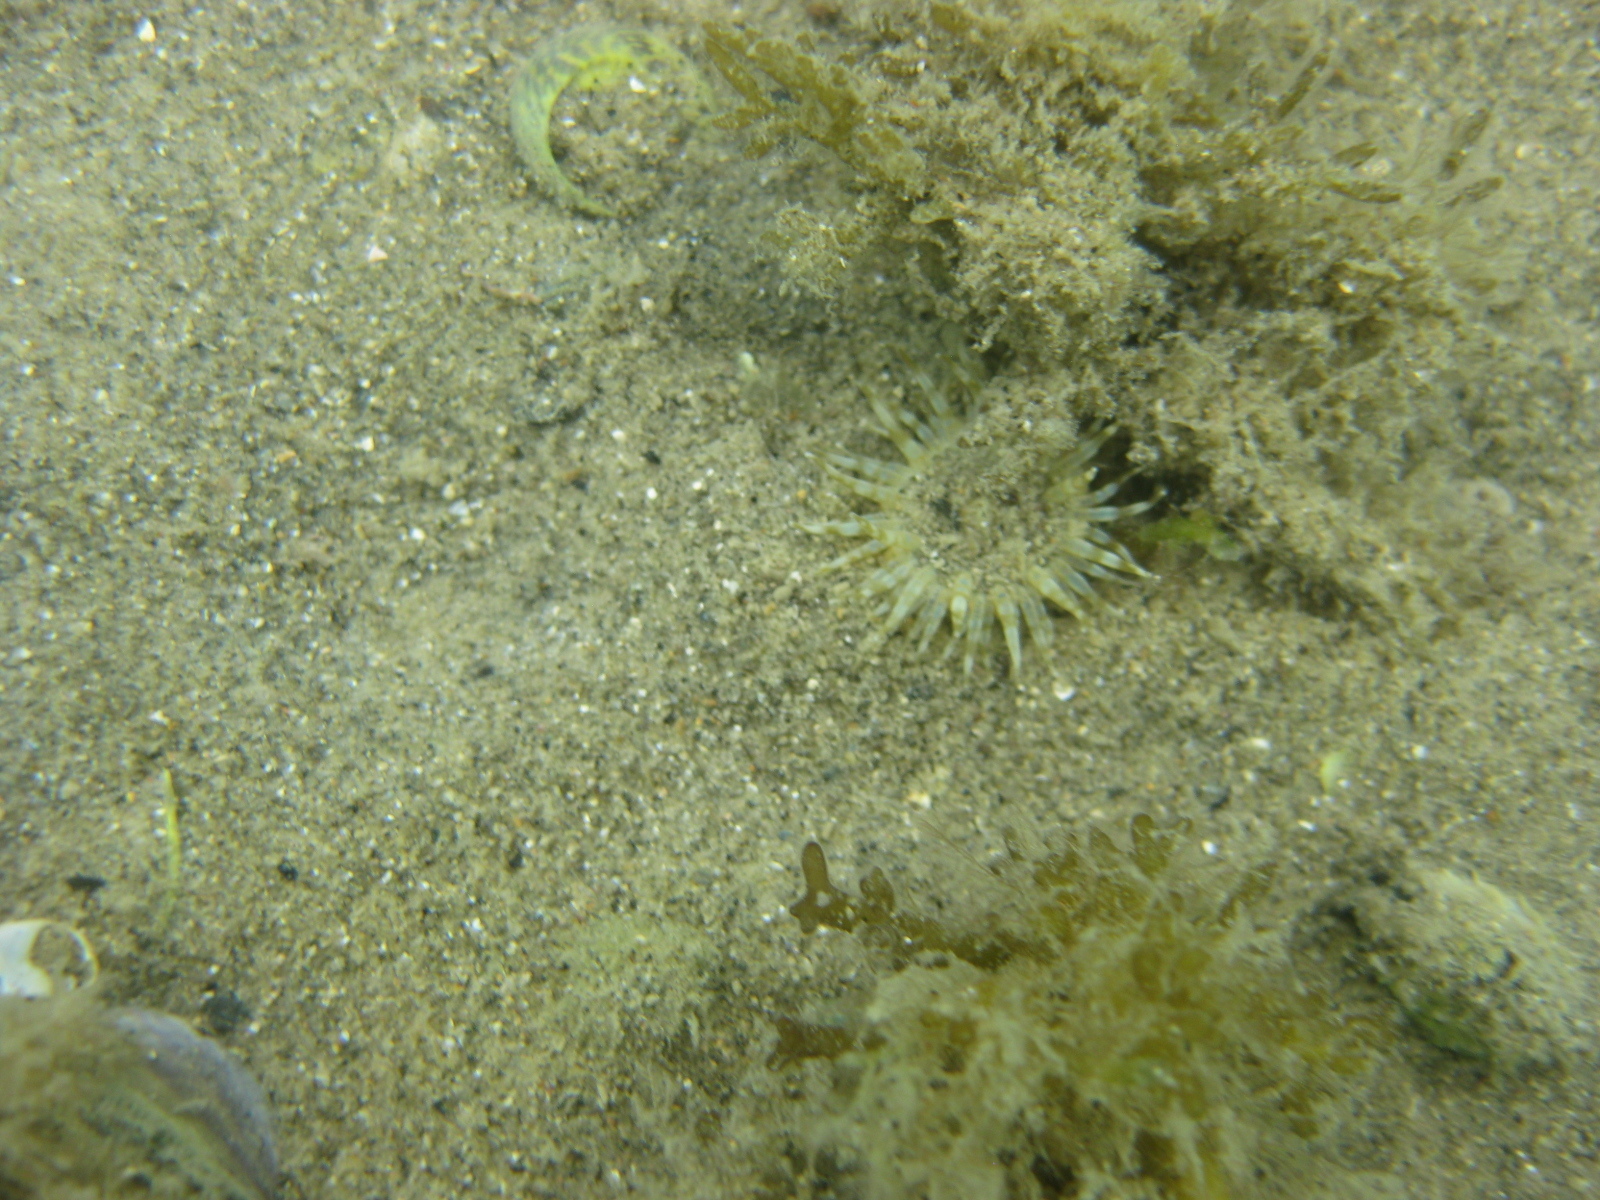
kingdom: Animalia
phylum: Cnidaria
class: Anthozoa
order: Actiniaria
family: Actiniidae
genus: Anthopleura
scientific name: Anthopleura hermaphroditica
